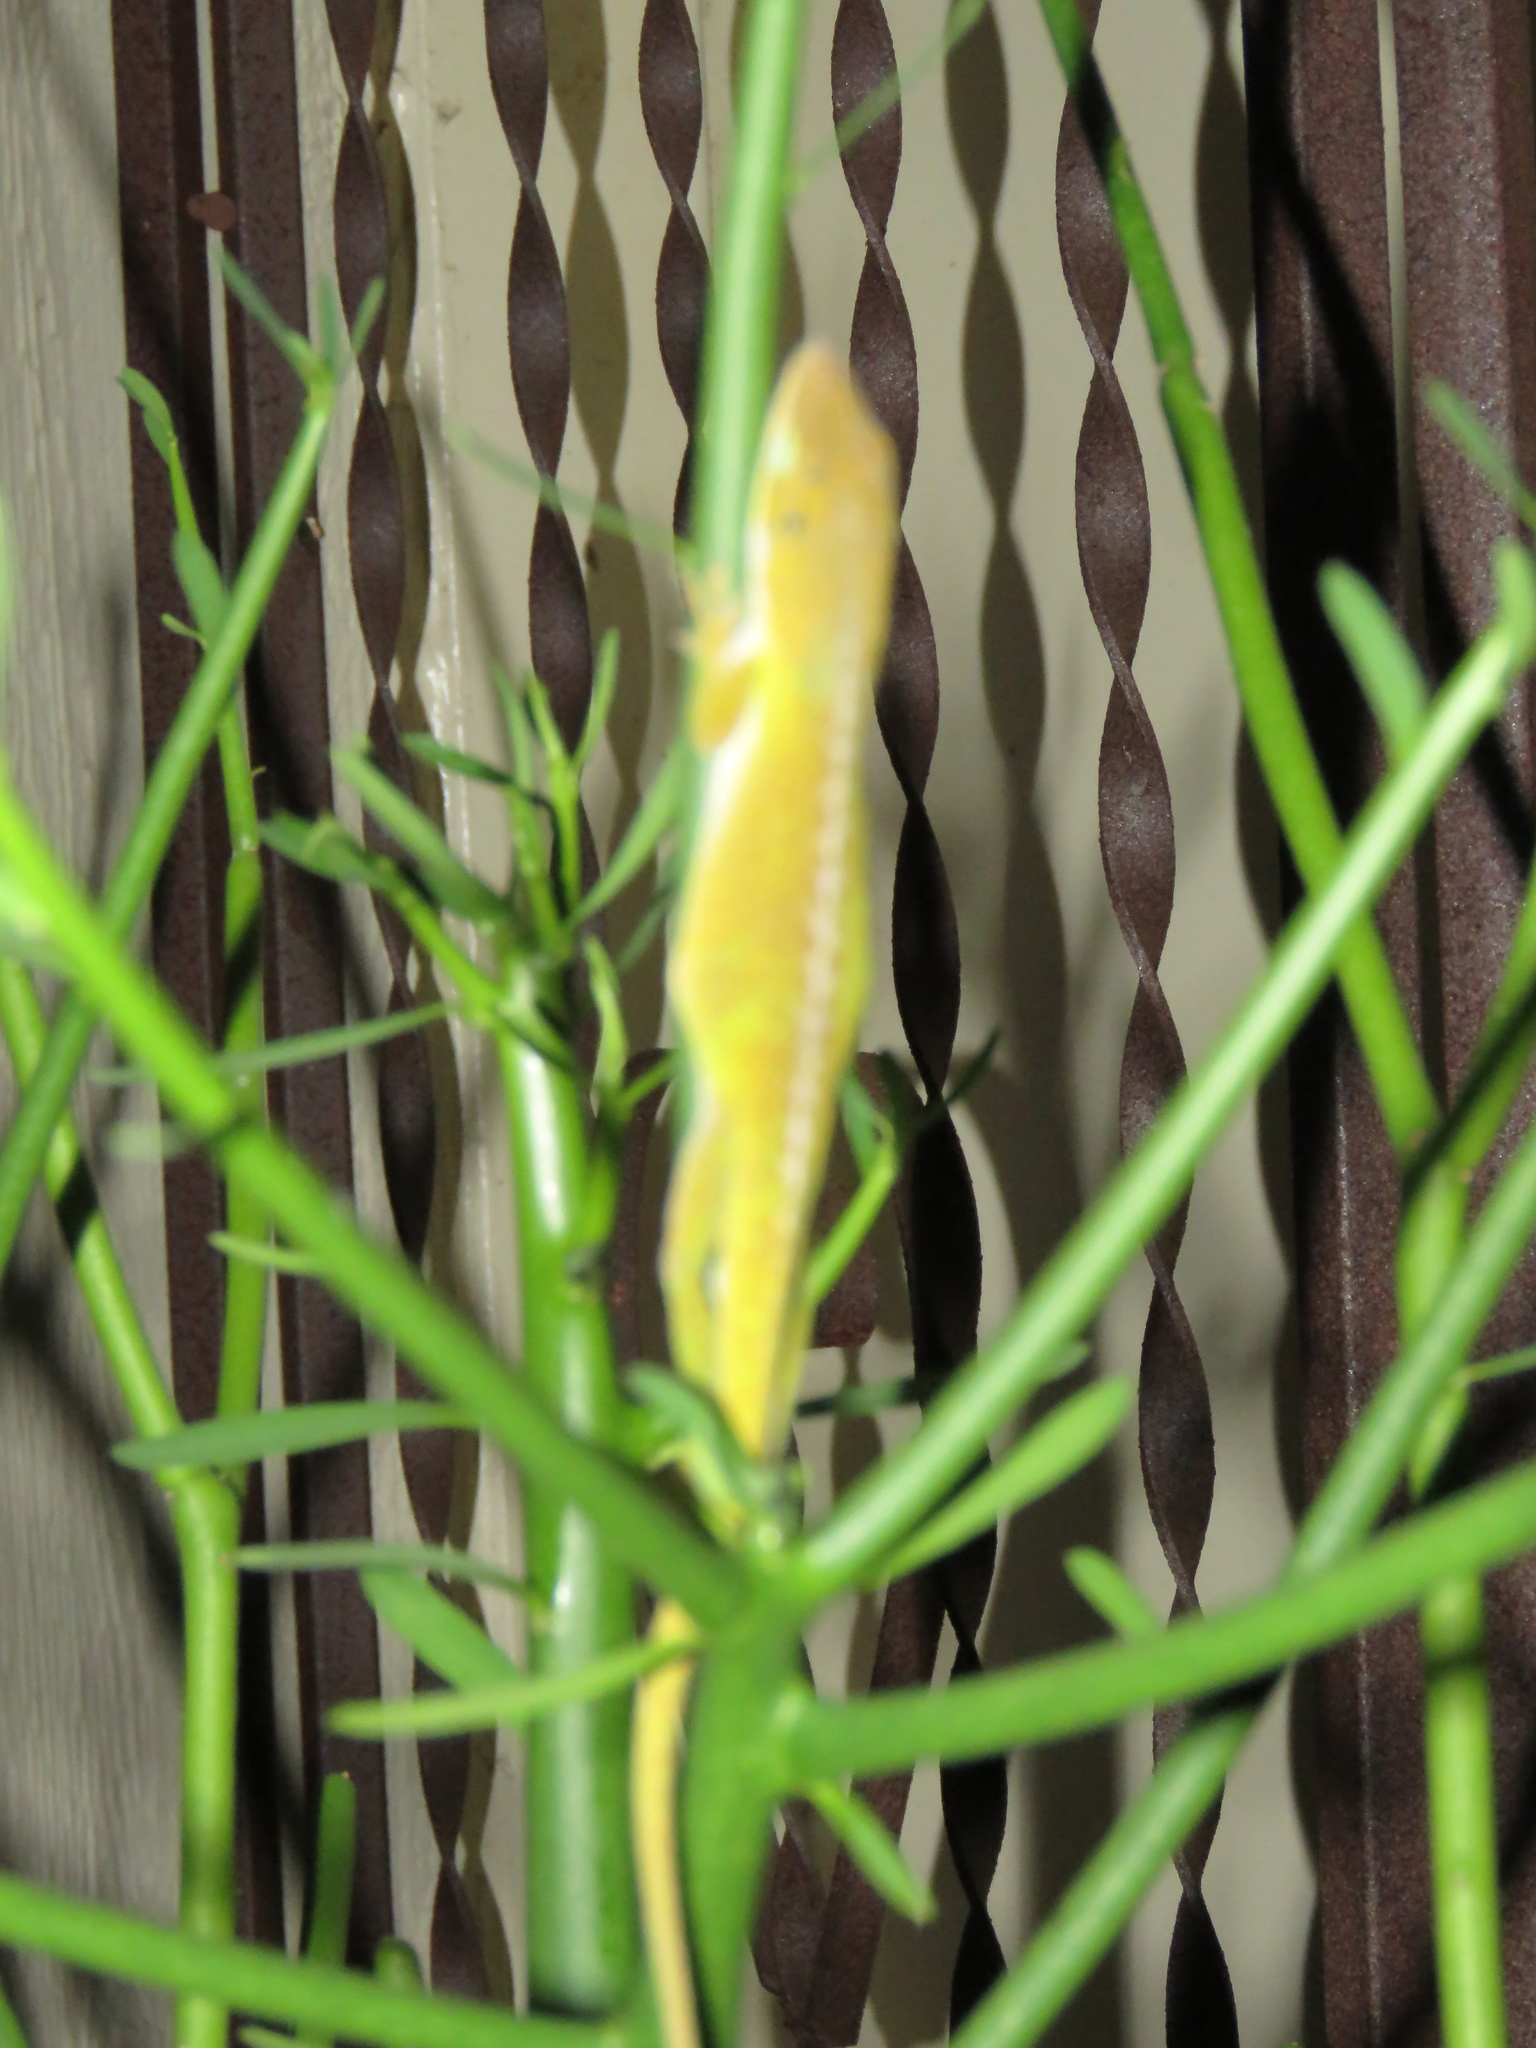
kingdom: Animalia
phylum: Chordata
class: Squamata
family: Dactyloidae
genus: Anolis
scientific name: Anolis carolinensis
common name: Green anole
